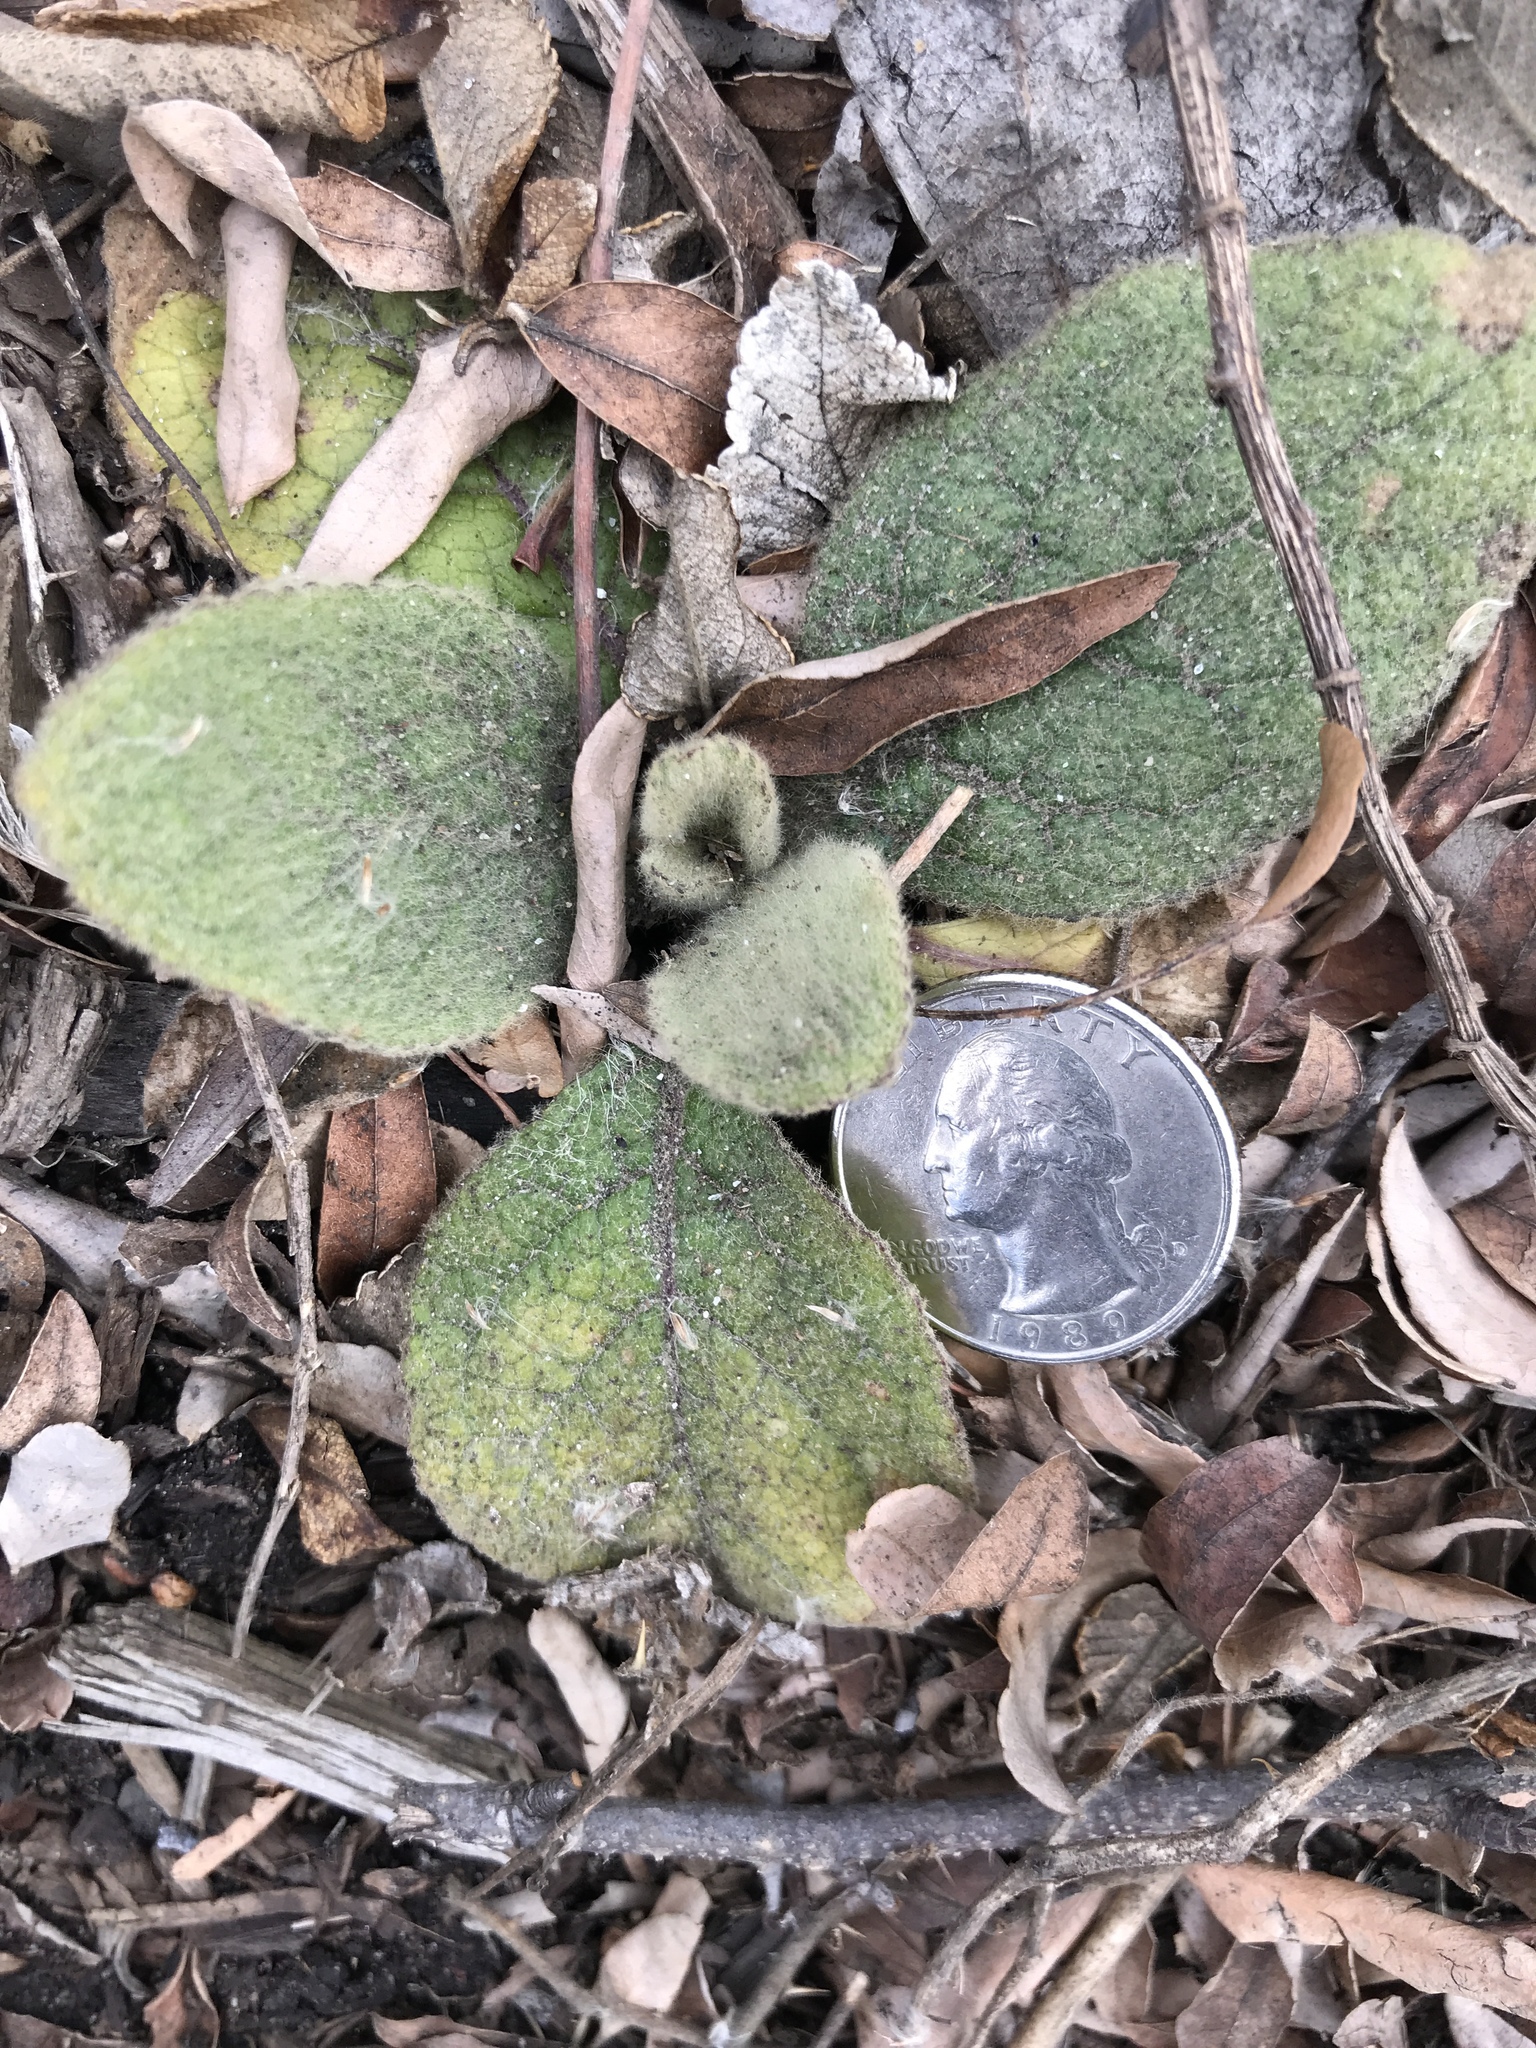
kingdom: Plantae
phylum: Tracheophyta
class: Magnoliopsida
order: Lamiales
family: Scrophulariaceae
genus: Verbascum
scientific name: Verbascum thapsus
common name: Common mullein
